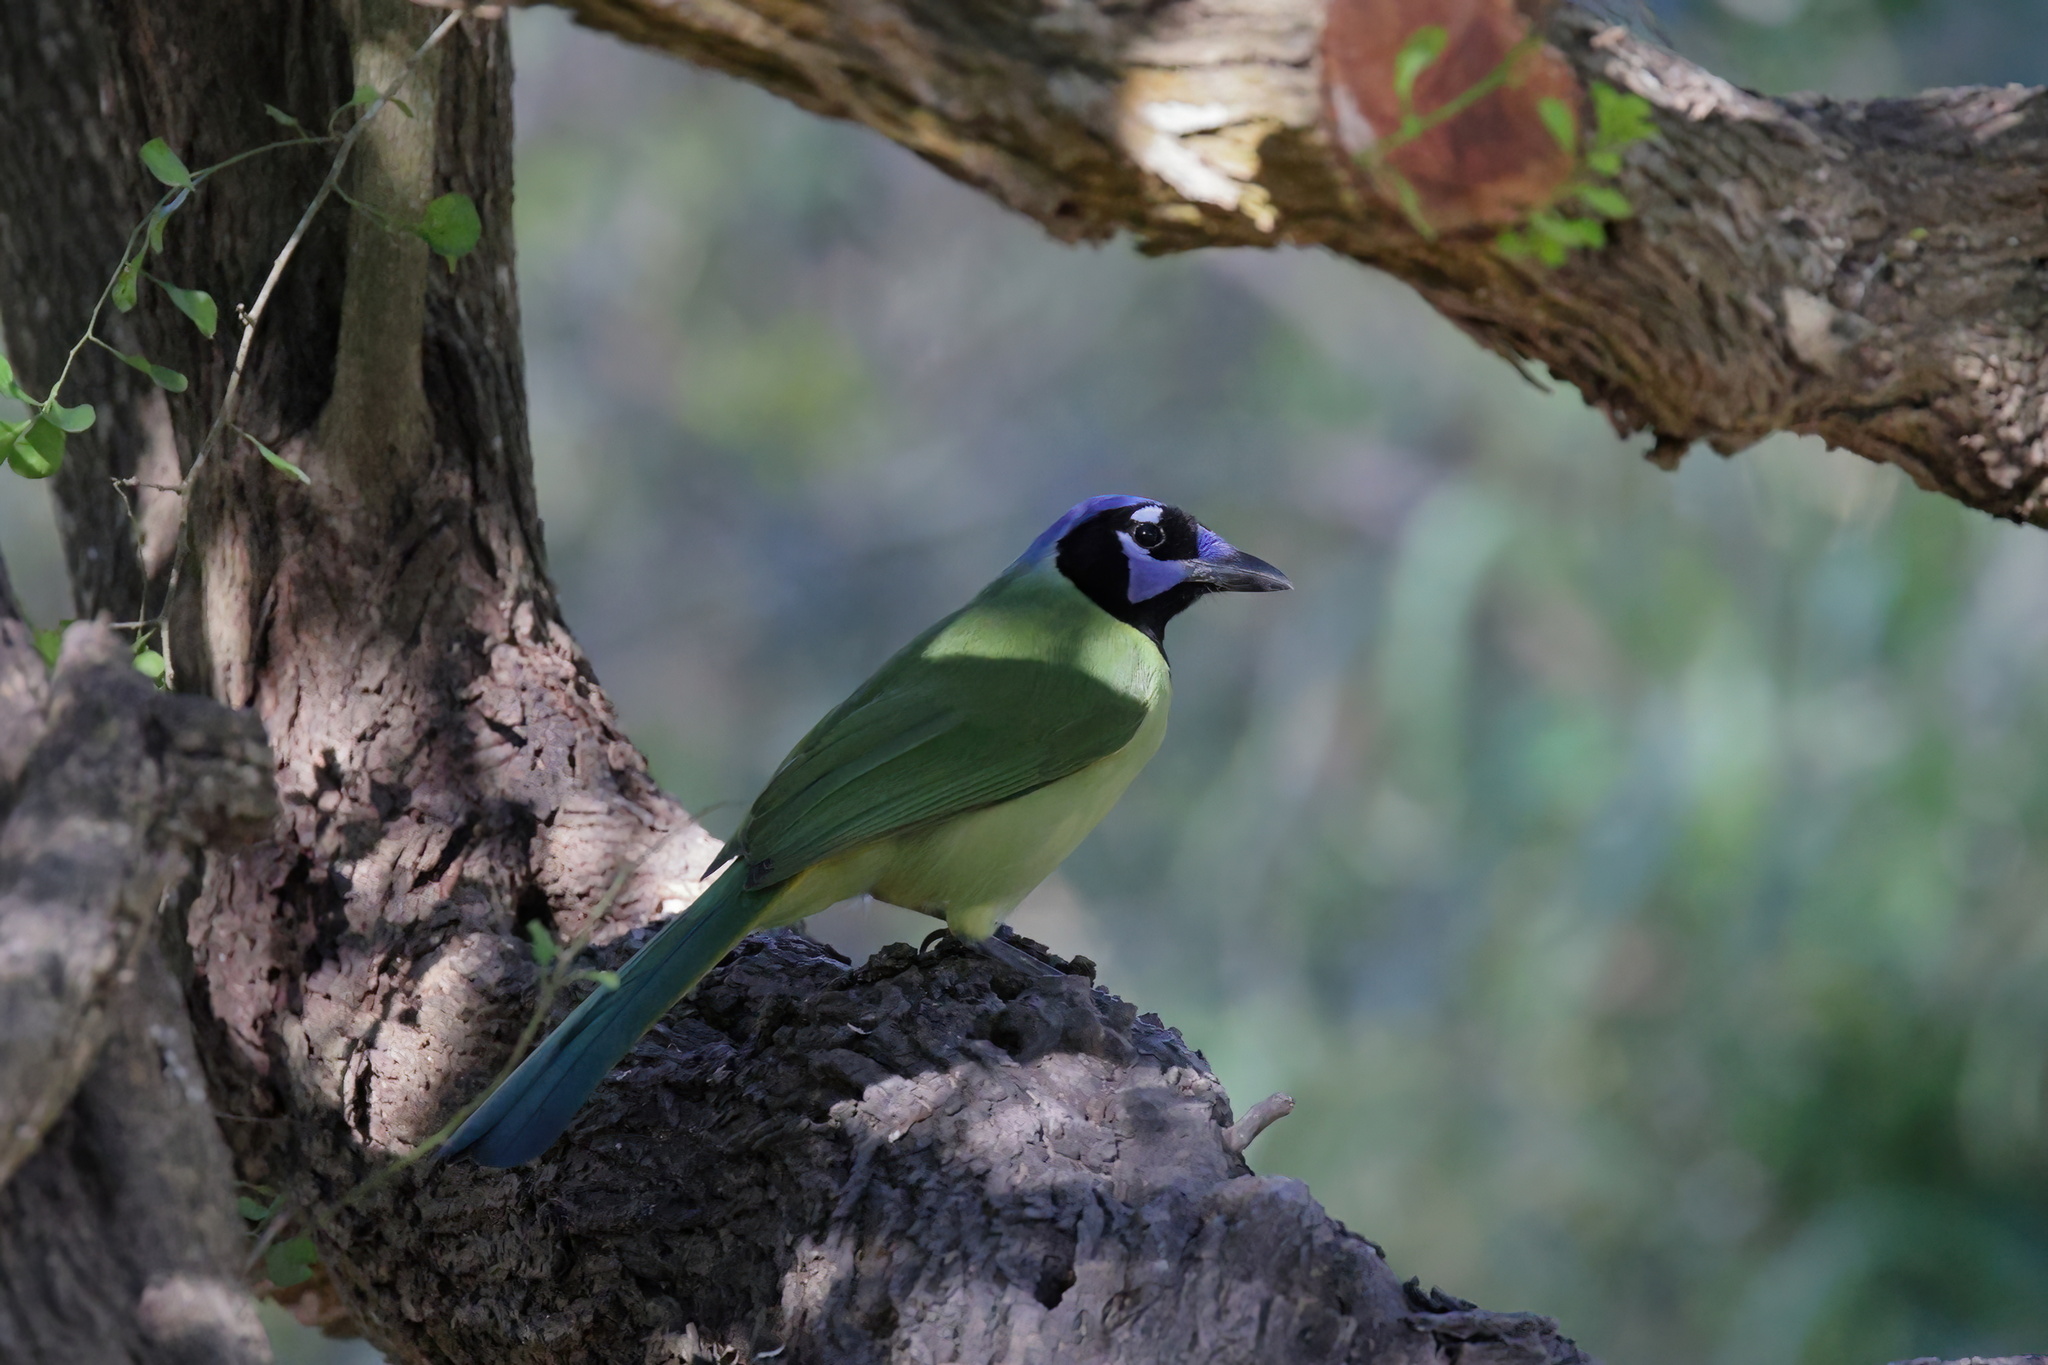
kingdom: Animalia
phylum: Chordata
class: Aves
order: Passeriformes
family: Corvidae
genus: Cyanocorax
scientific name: Cyanocorax yncas
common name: Green jay
